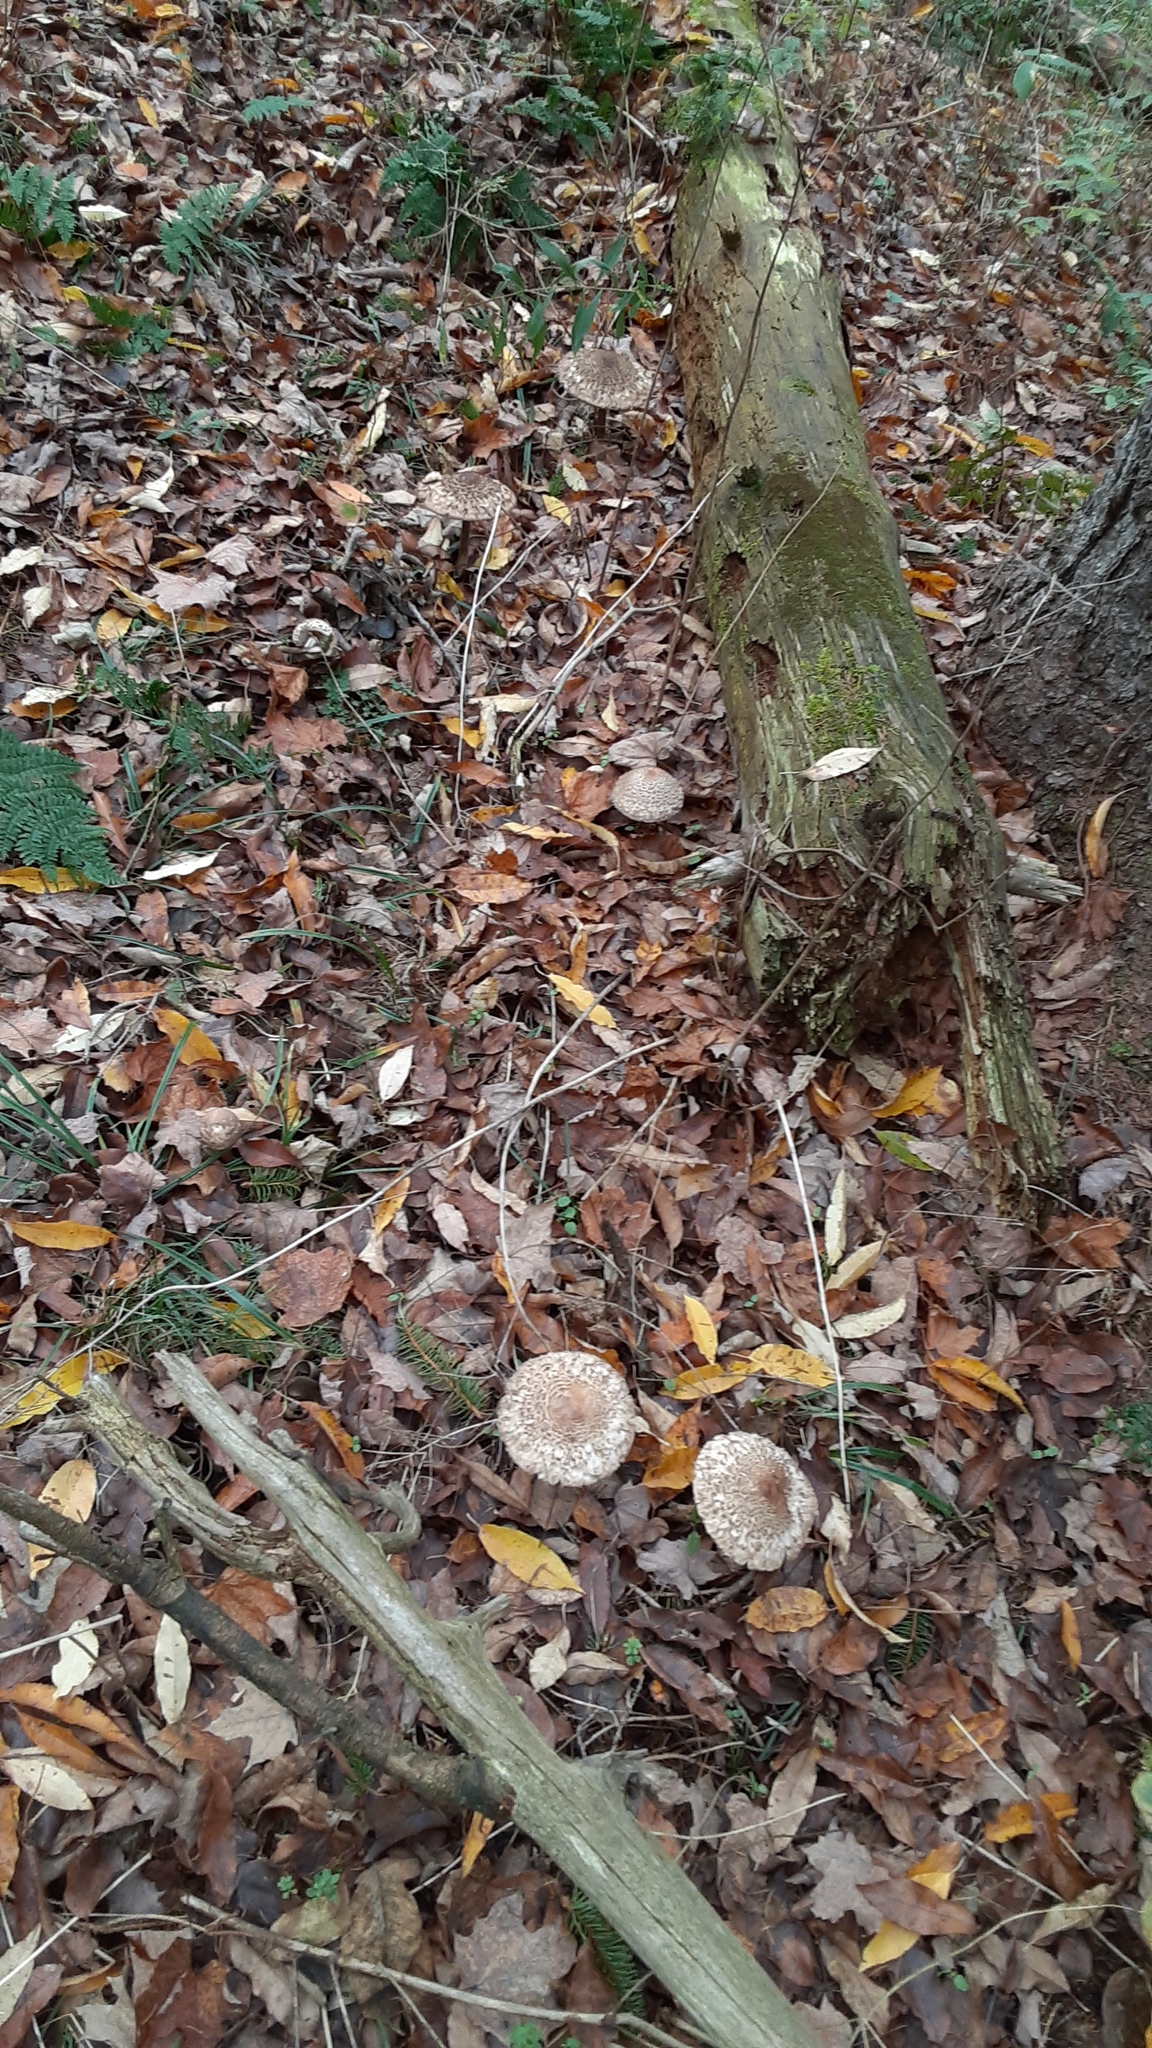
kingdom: Fungi
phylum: Basidiomycota
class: Agaricomycetes
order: Agaricales
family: Agaricaceae
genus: Chlorophyllum
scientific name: Chlorophyllum rhacodes
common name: Shaggy parasol
